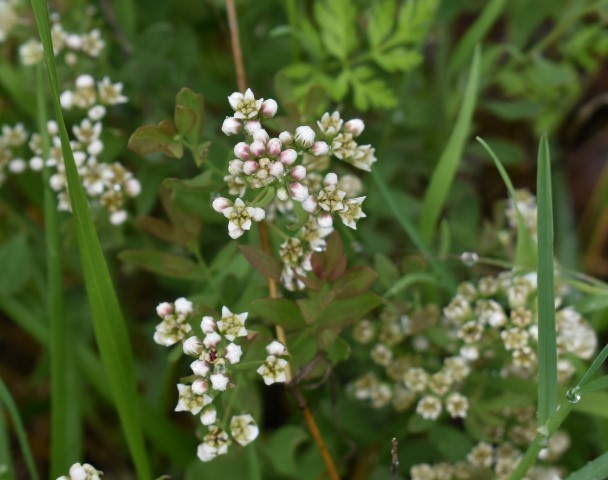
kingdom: Plantae
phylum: Tracheophyta
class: Magnoliopsida
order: Santalales
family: Comandraceae
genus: Comandra
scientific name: Comandra umbellata
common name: Bastard toadflax
